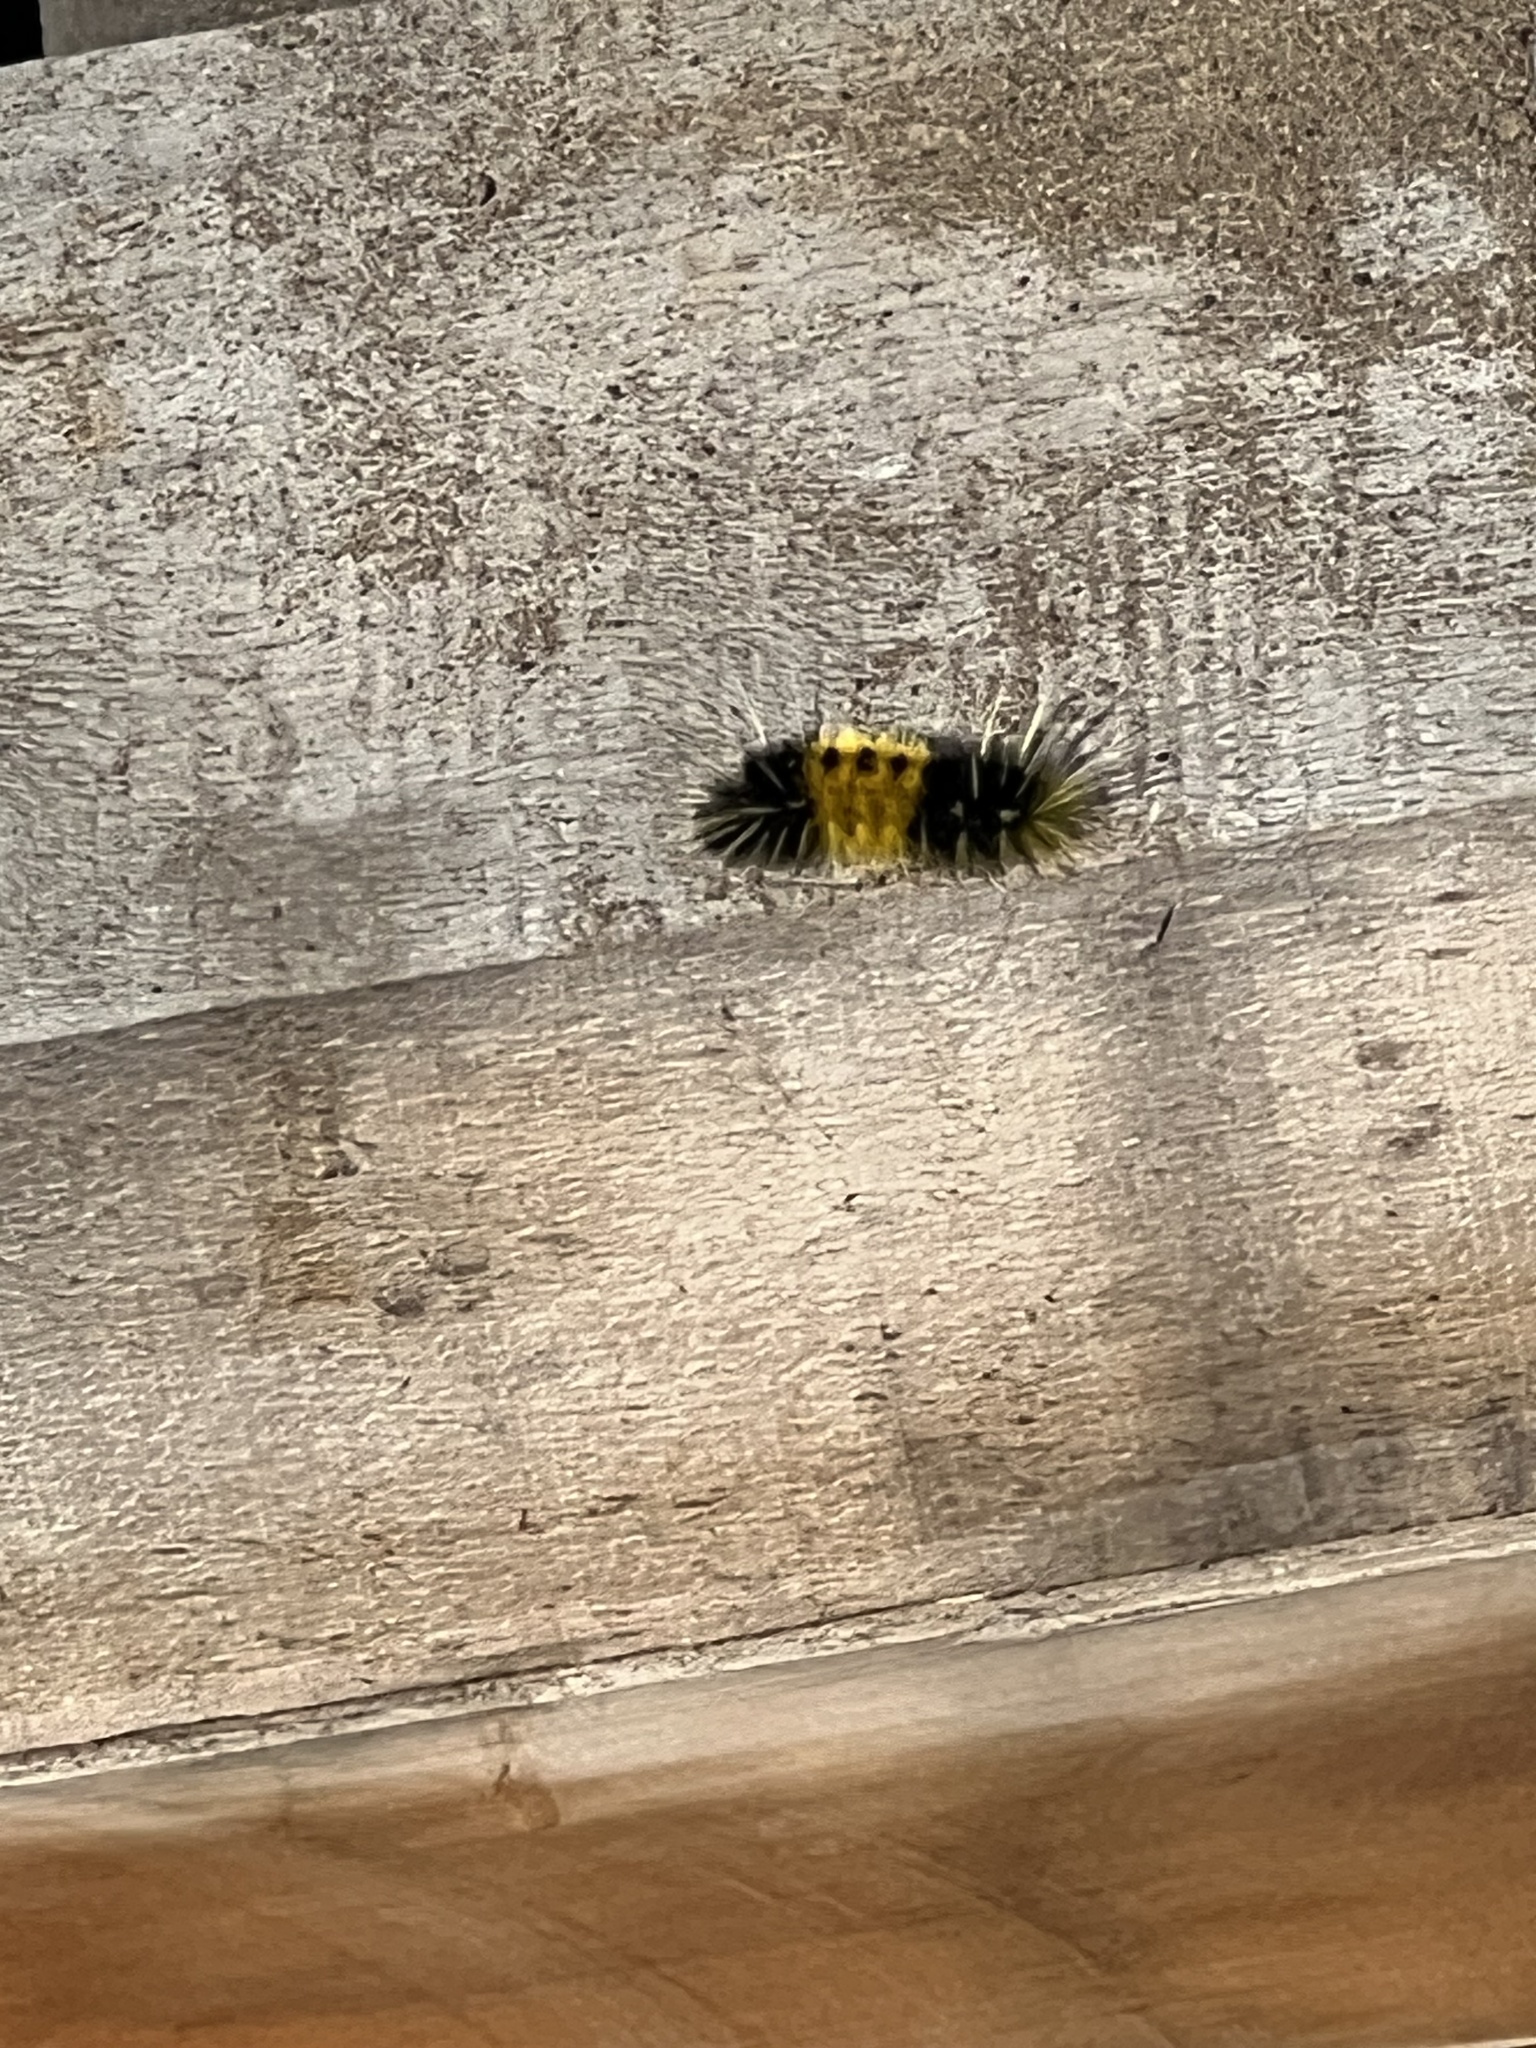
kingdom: Animalia
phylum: Arthropoda
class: Insecta
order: Lepidoptera
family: Erebidae
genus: Lophocampa
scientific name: Lophocampa maculata
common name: Spotted tussock moth
